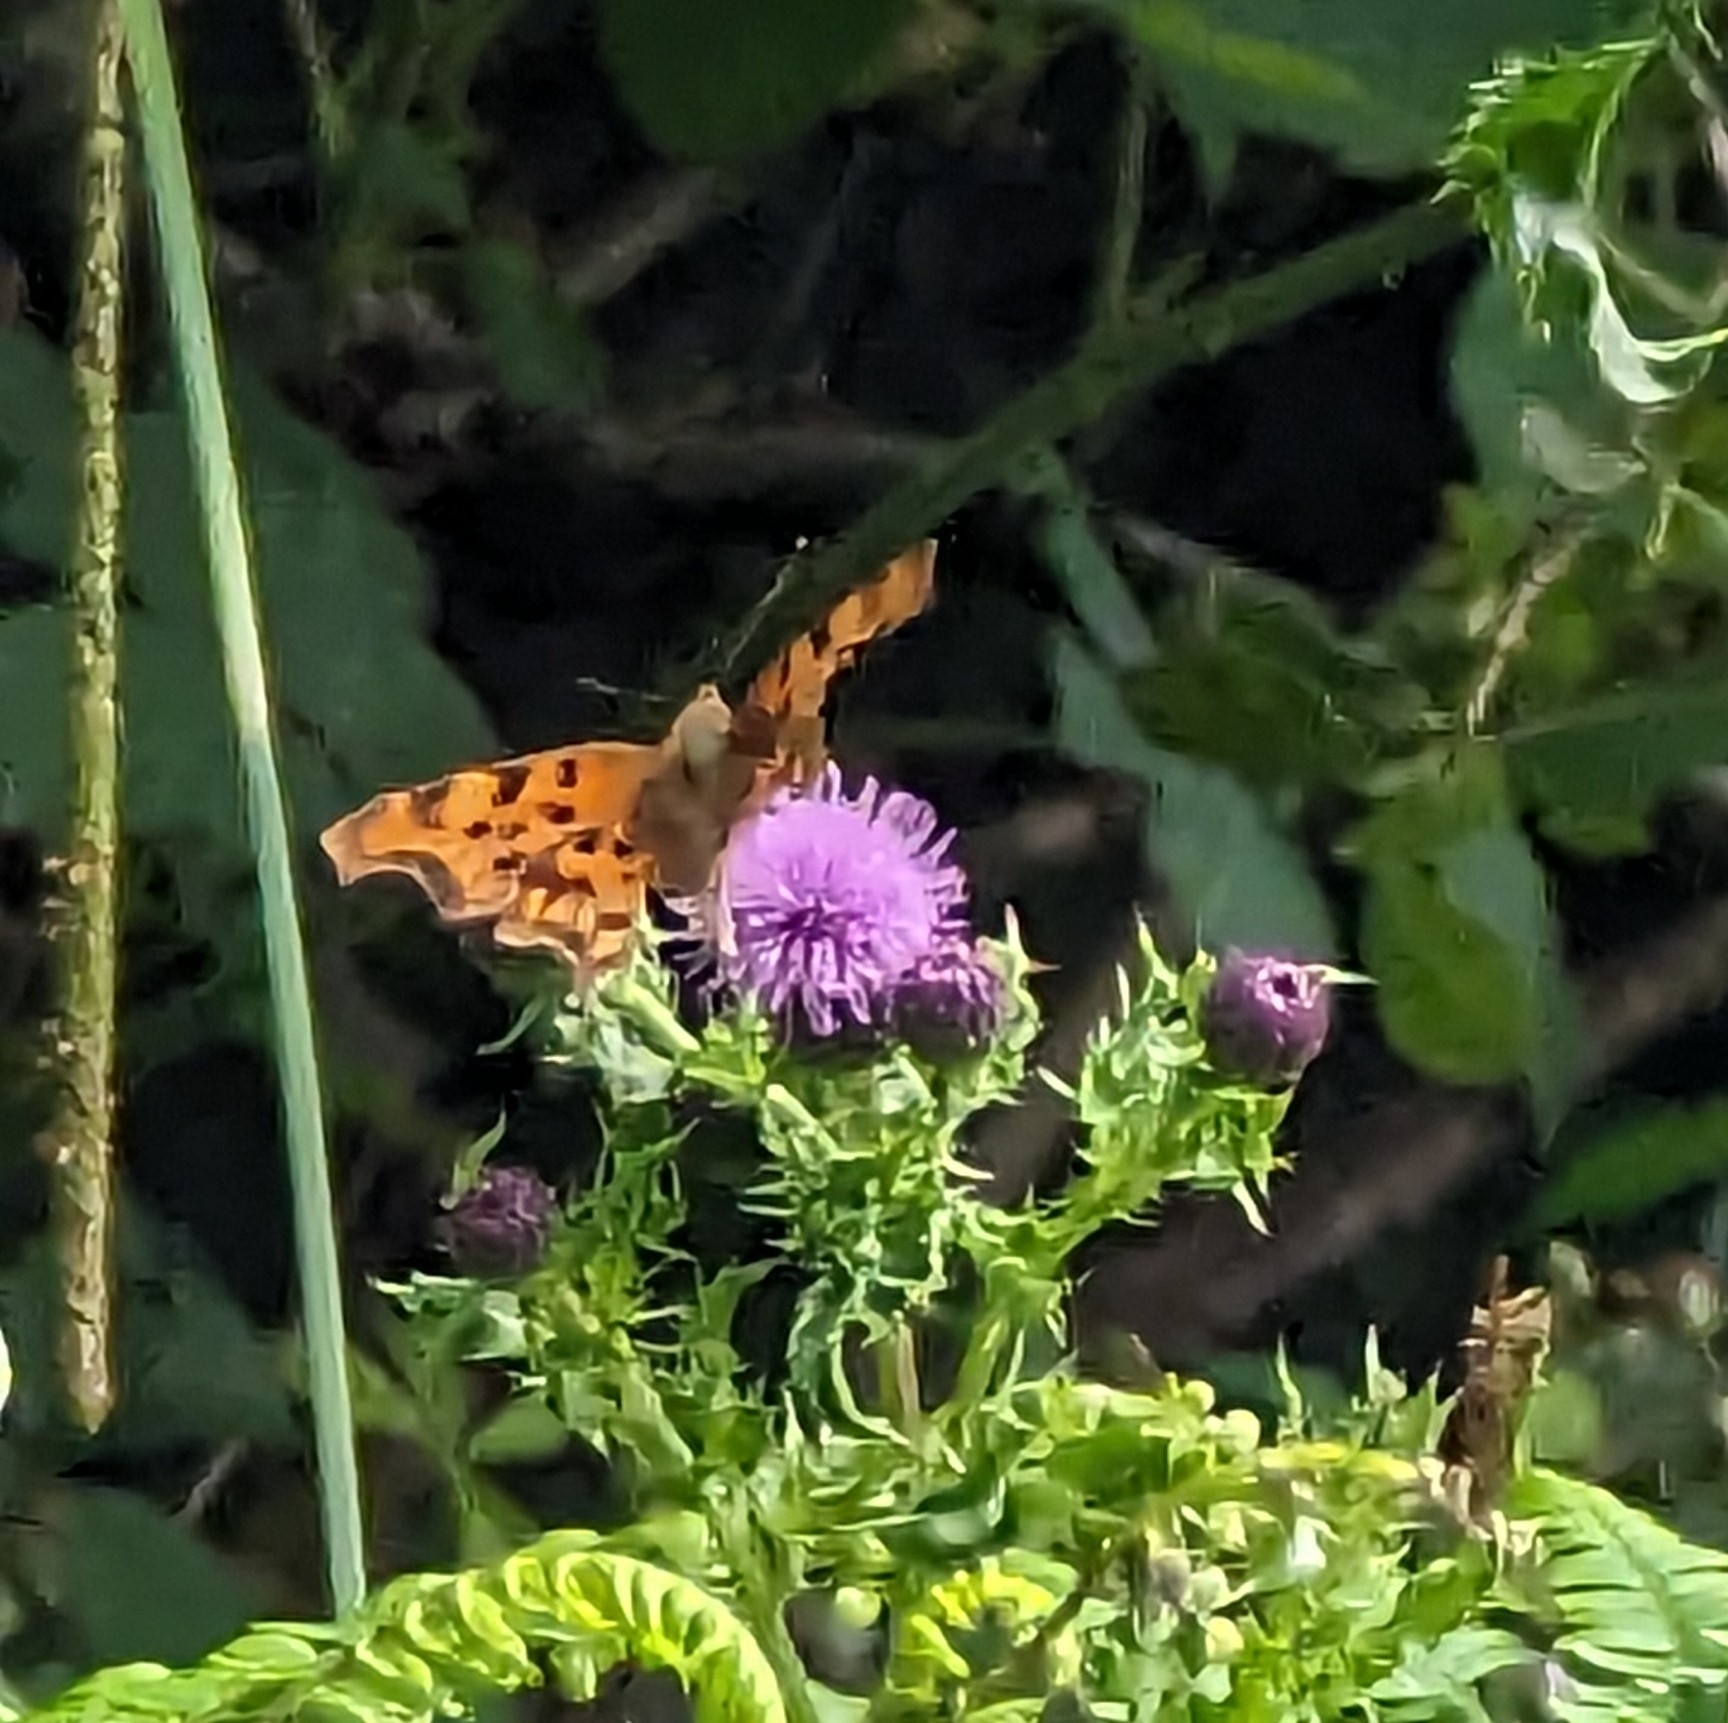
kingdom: Animalia
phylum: Arthropoda
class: Insecta
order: Lepidoptera
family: Nymphalidae
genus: Polygonia
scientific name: Polygonia c-album
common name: Comma
